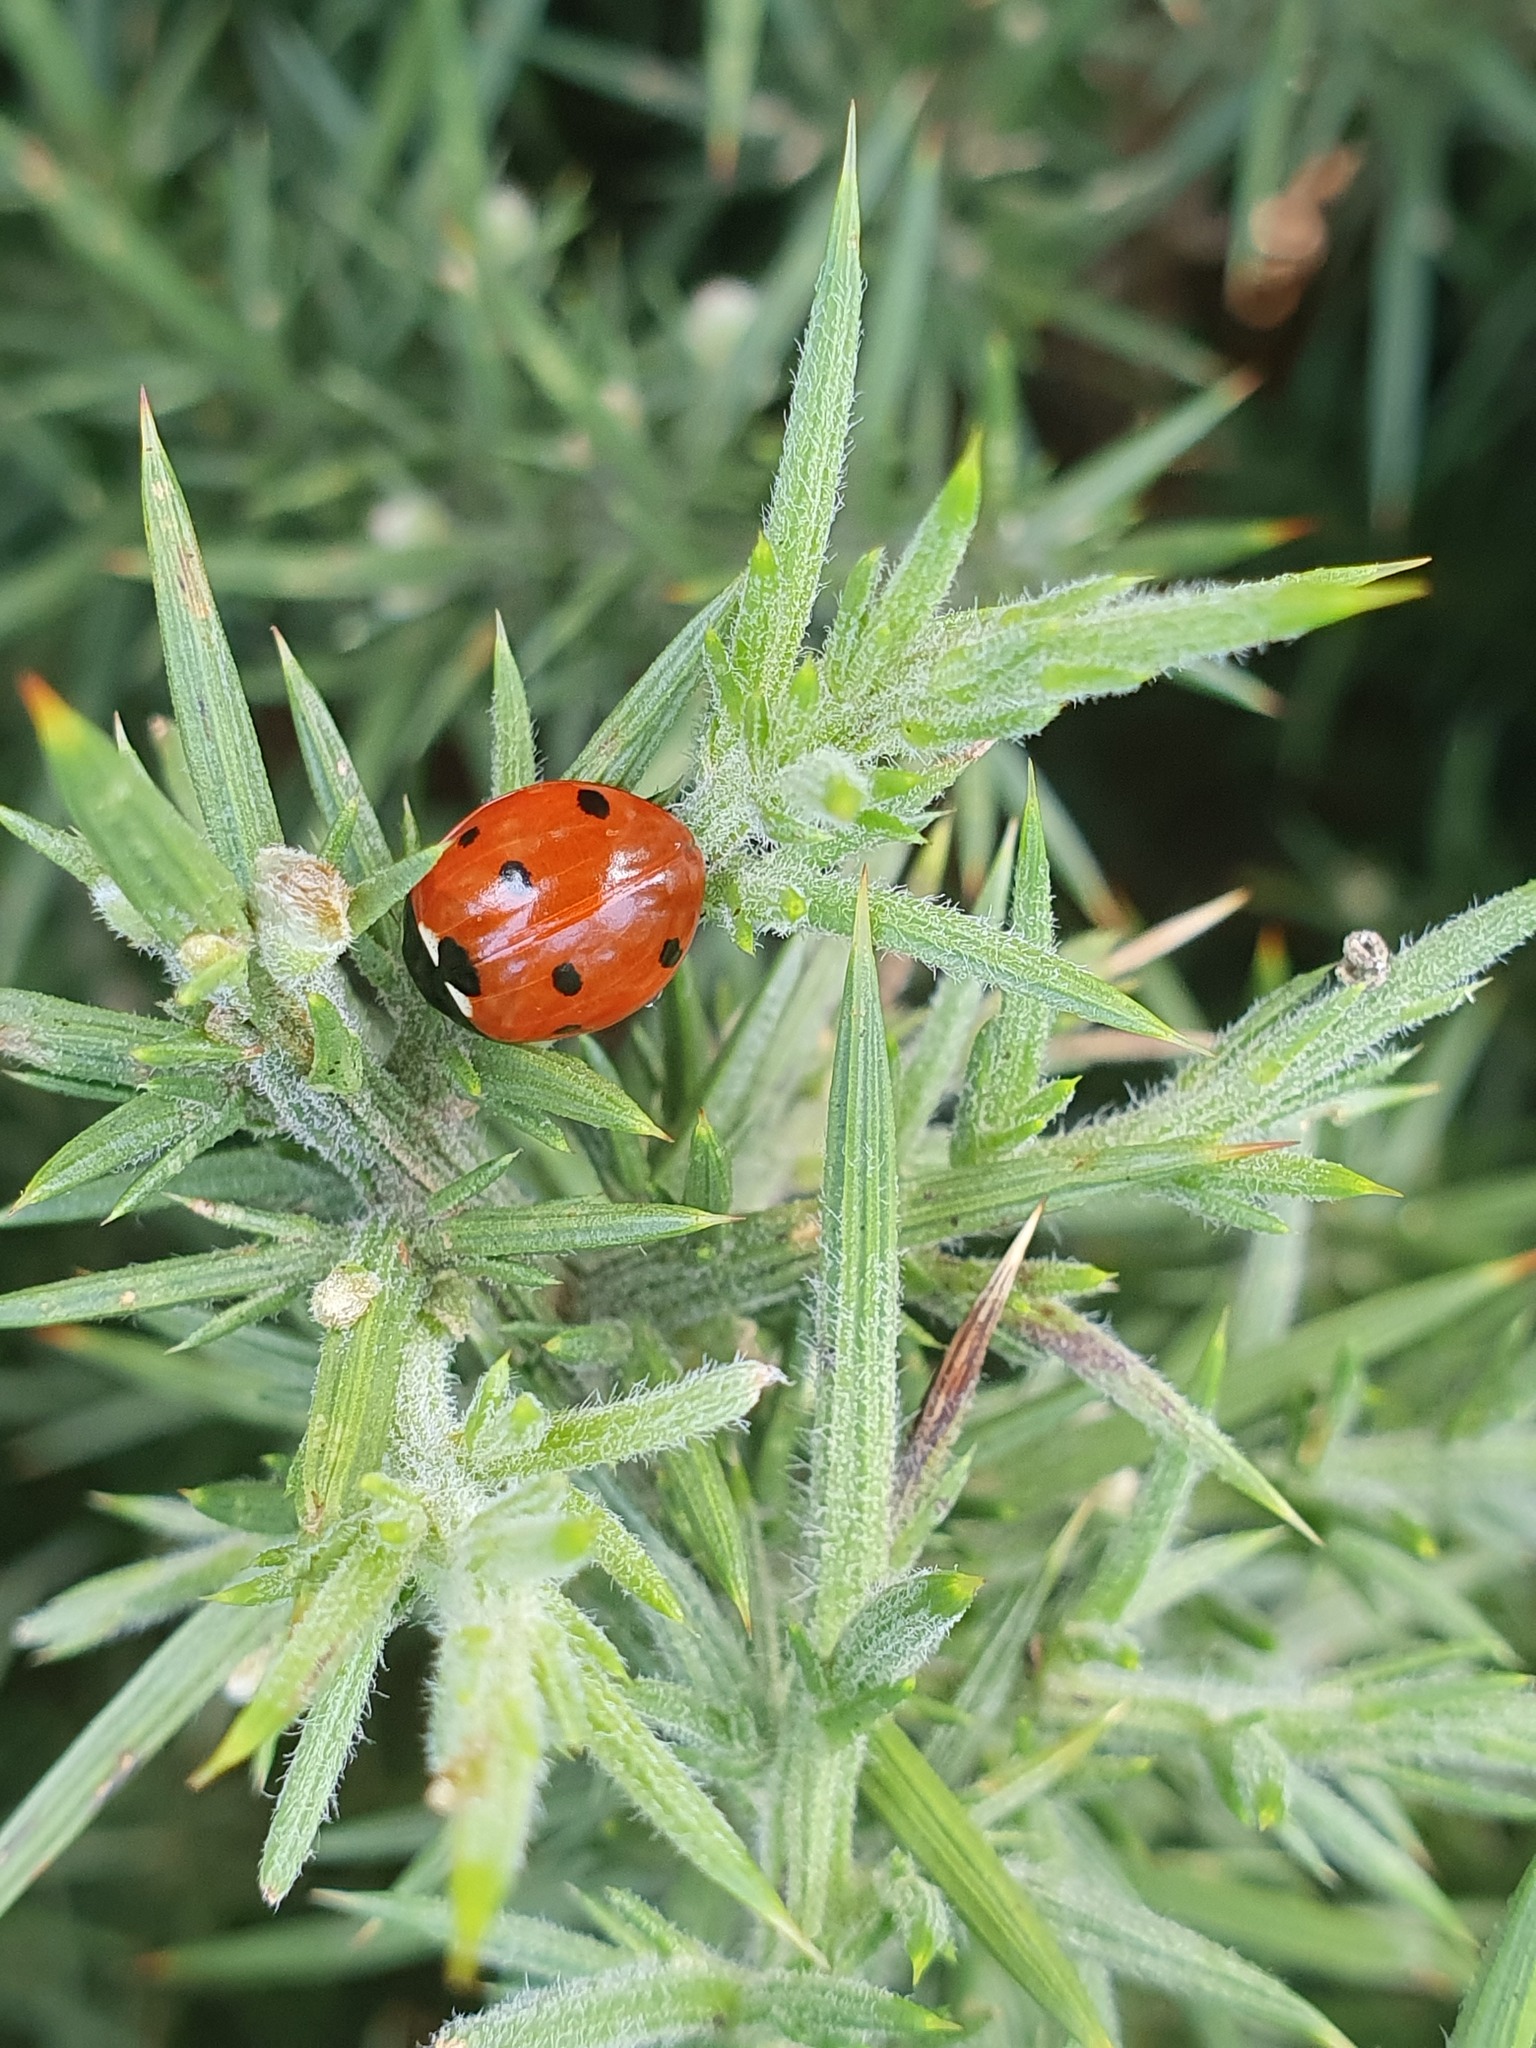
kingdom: Animalia
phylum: Arthropoda
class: Insecta
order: Coleoptera
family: Coccinellidae
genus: Coccinella
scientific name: Coccinella septempunctata
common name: Sevenspotted lady beetle
